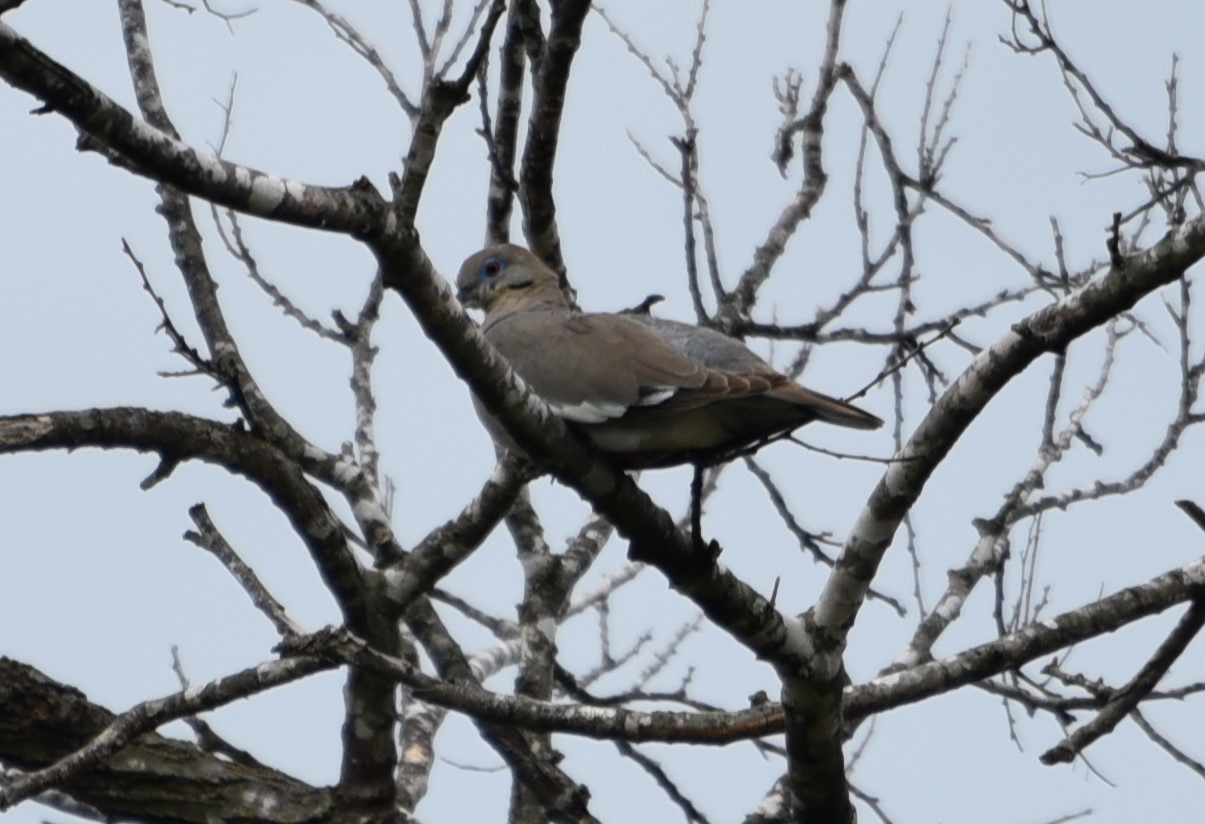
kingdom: Animalia
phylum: Chordata
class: Aves
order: Columbiformes
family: Columbidae
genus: Zenaida
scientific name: Zenaida asiatica
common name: White-winged dove
